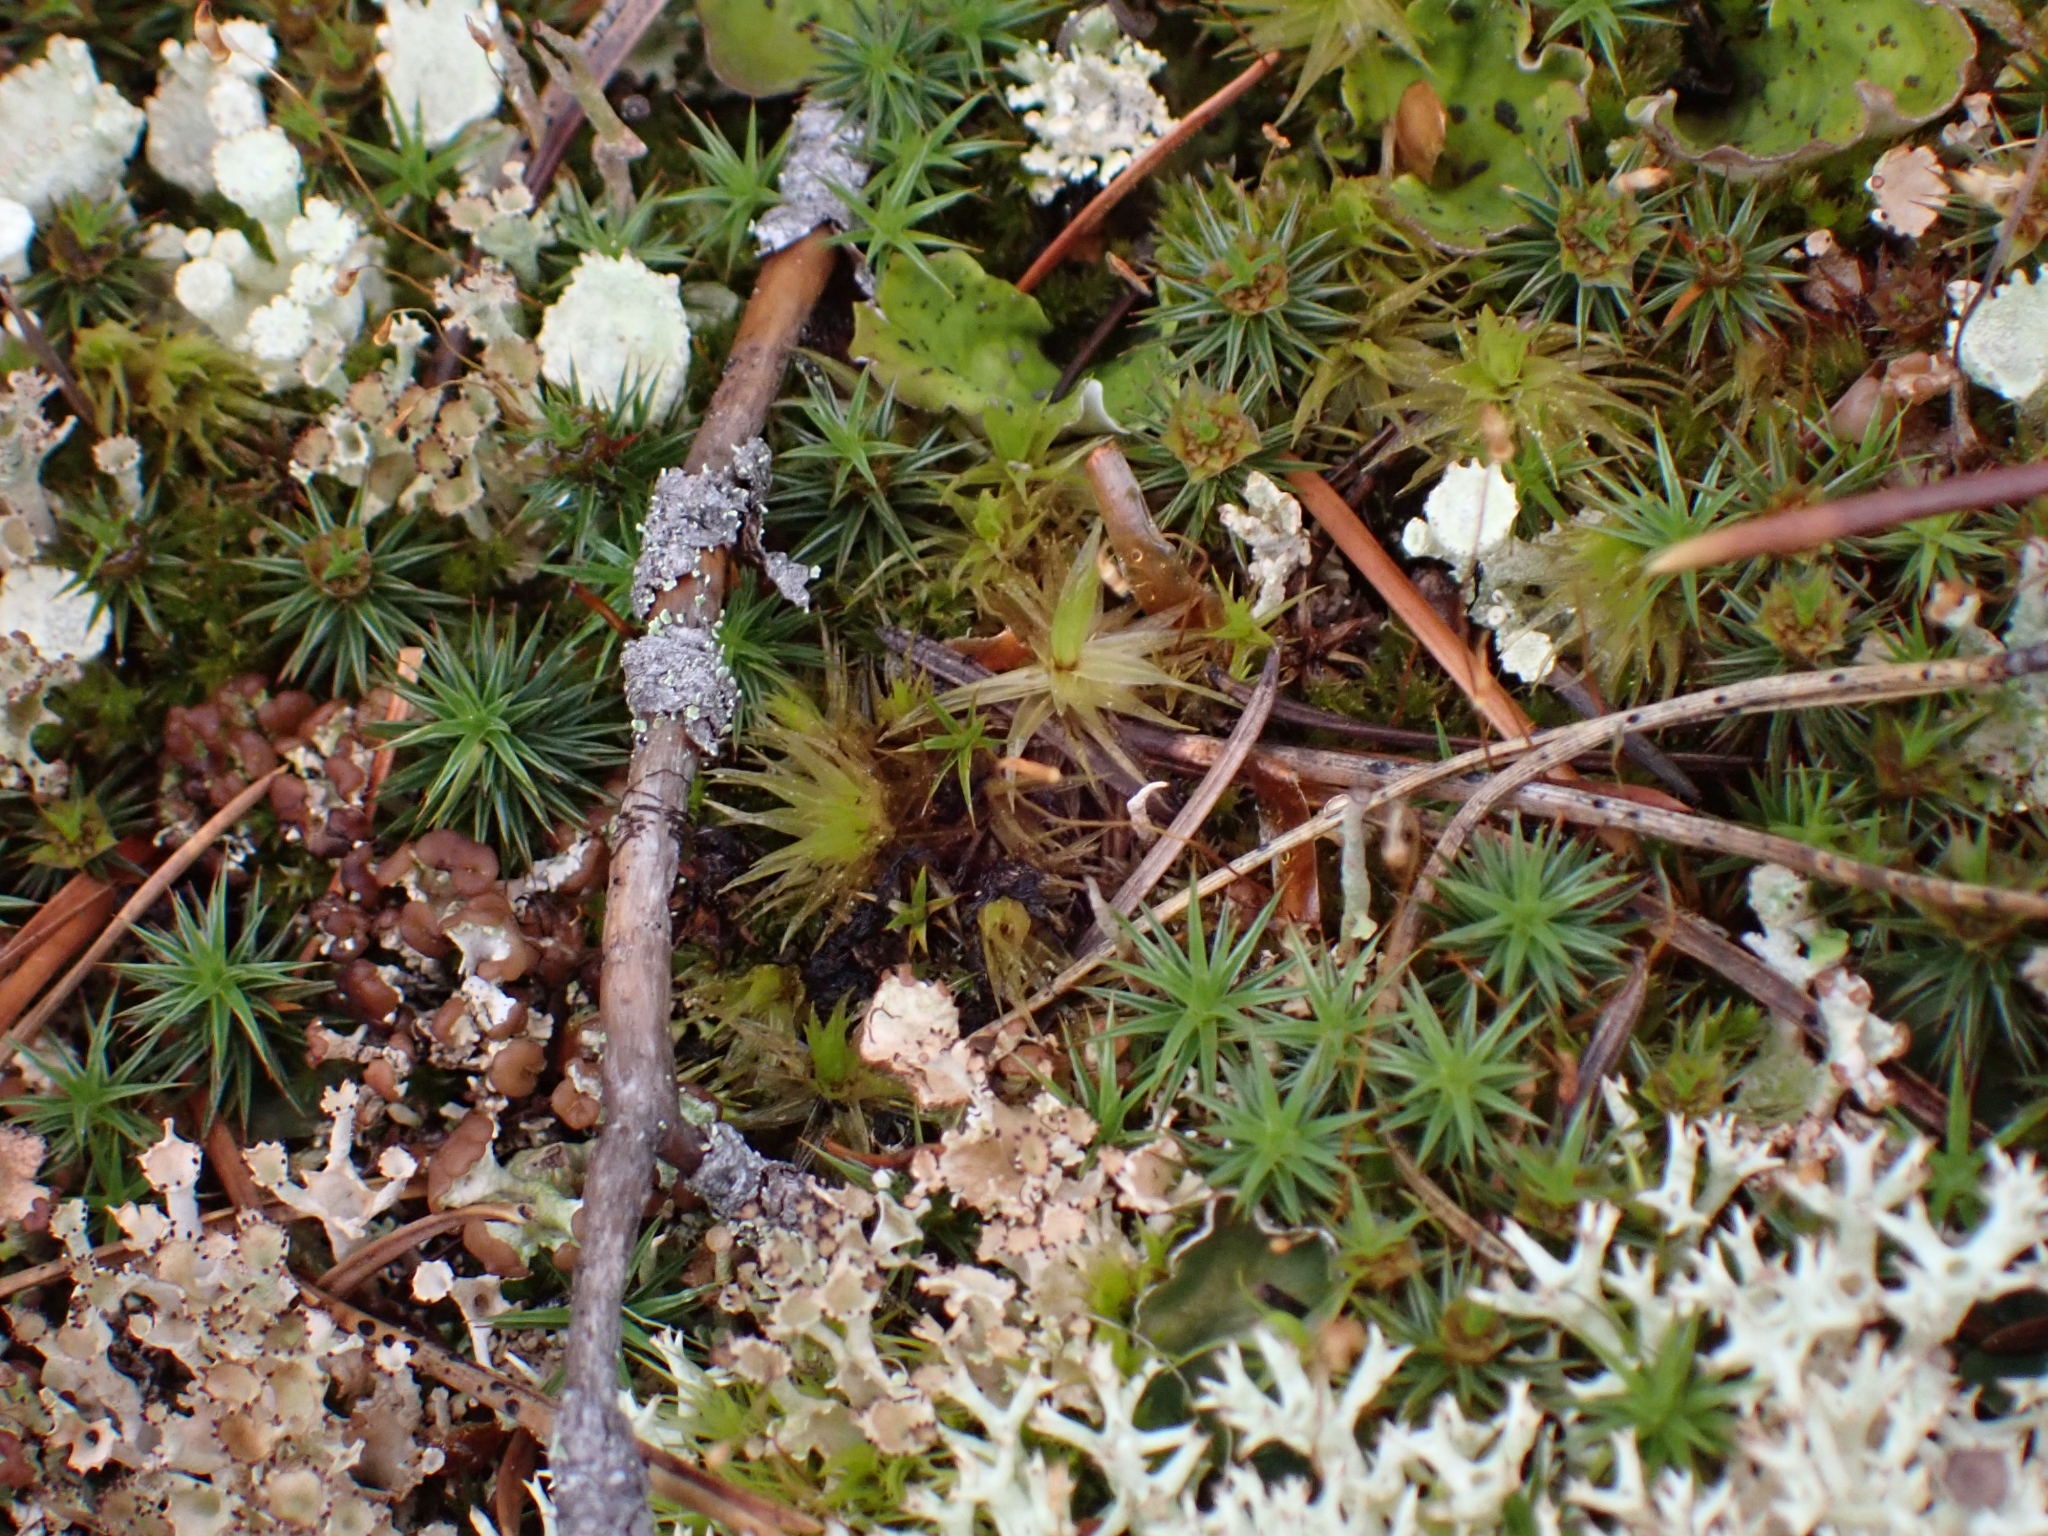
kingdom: Plantae
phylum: Bryophyta
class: Polytrichopsida
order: Polytrichales
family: Polytrichaceae
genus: Polytrichum
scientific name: Polytrichum juniperinum
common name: Juniper haircap moss
